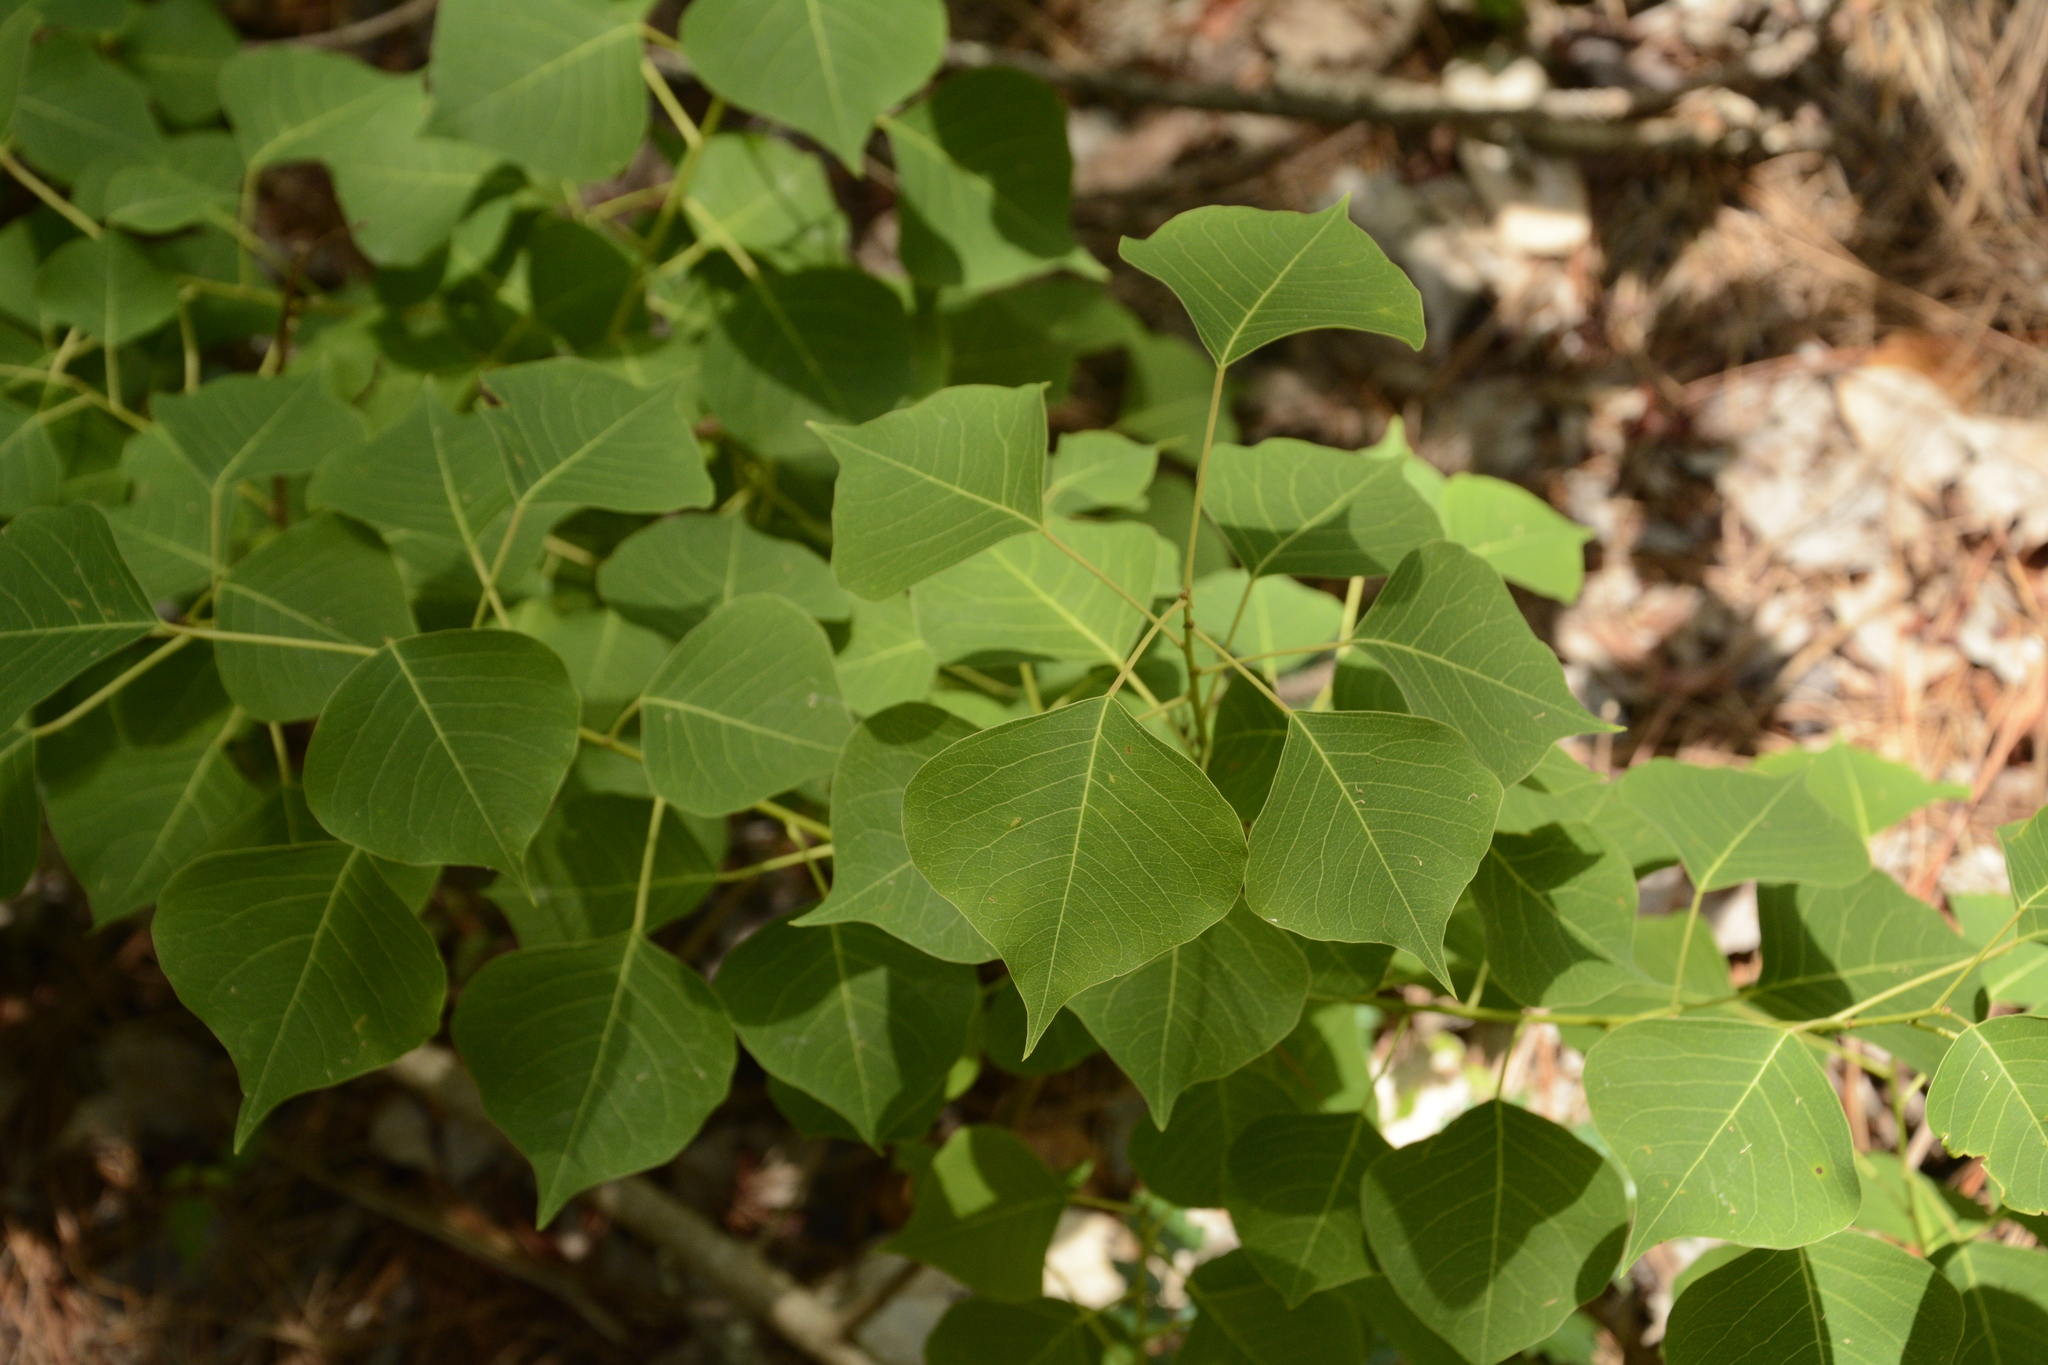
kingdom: Plantae
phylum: Tracheophyta
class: Magnoliopsida
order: Malpighiales
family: Euphorbiaceae
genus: Triadica
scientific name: Triadica sebifera
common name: Chinese tallow
